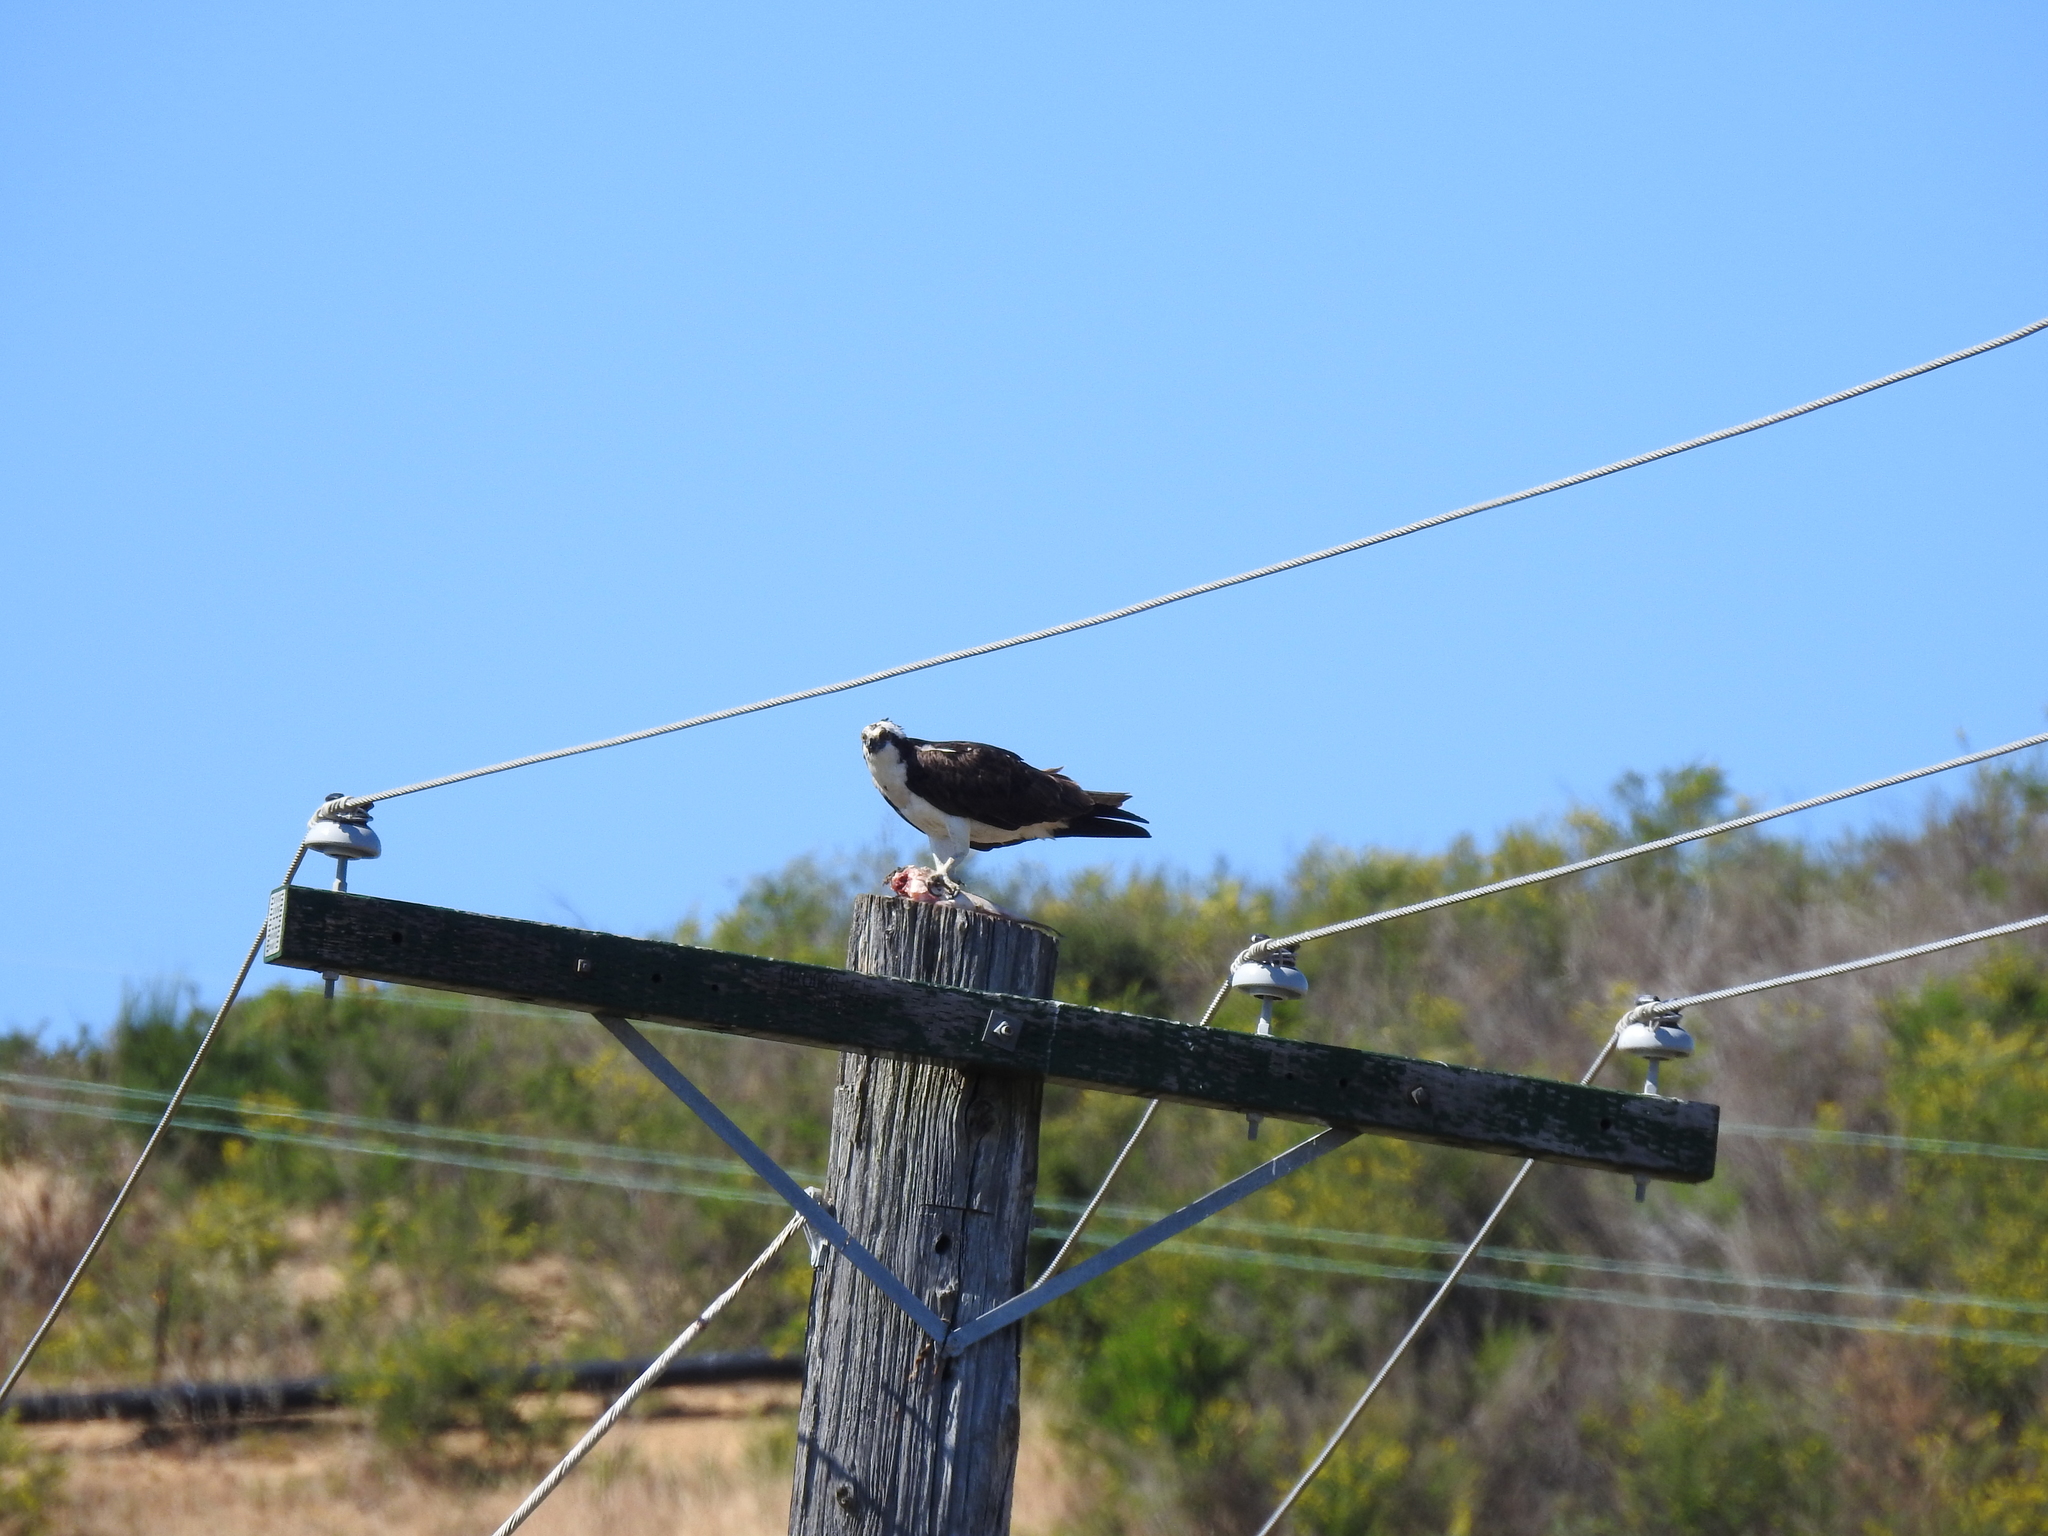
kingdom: Animalia
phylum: Chordata
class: Aves
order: Accipitriformes
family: Pandionidae
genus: Pandion
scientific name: Pandion haliaetus
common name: Osprey
